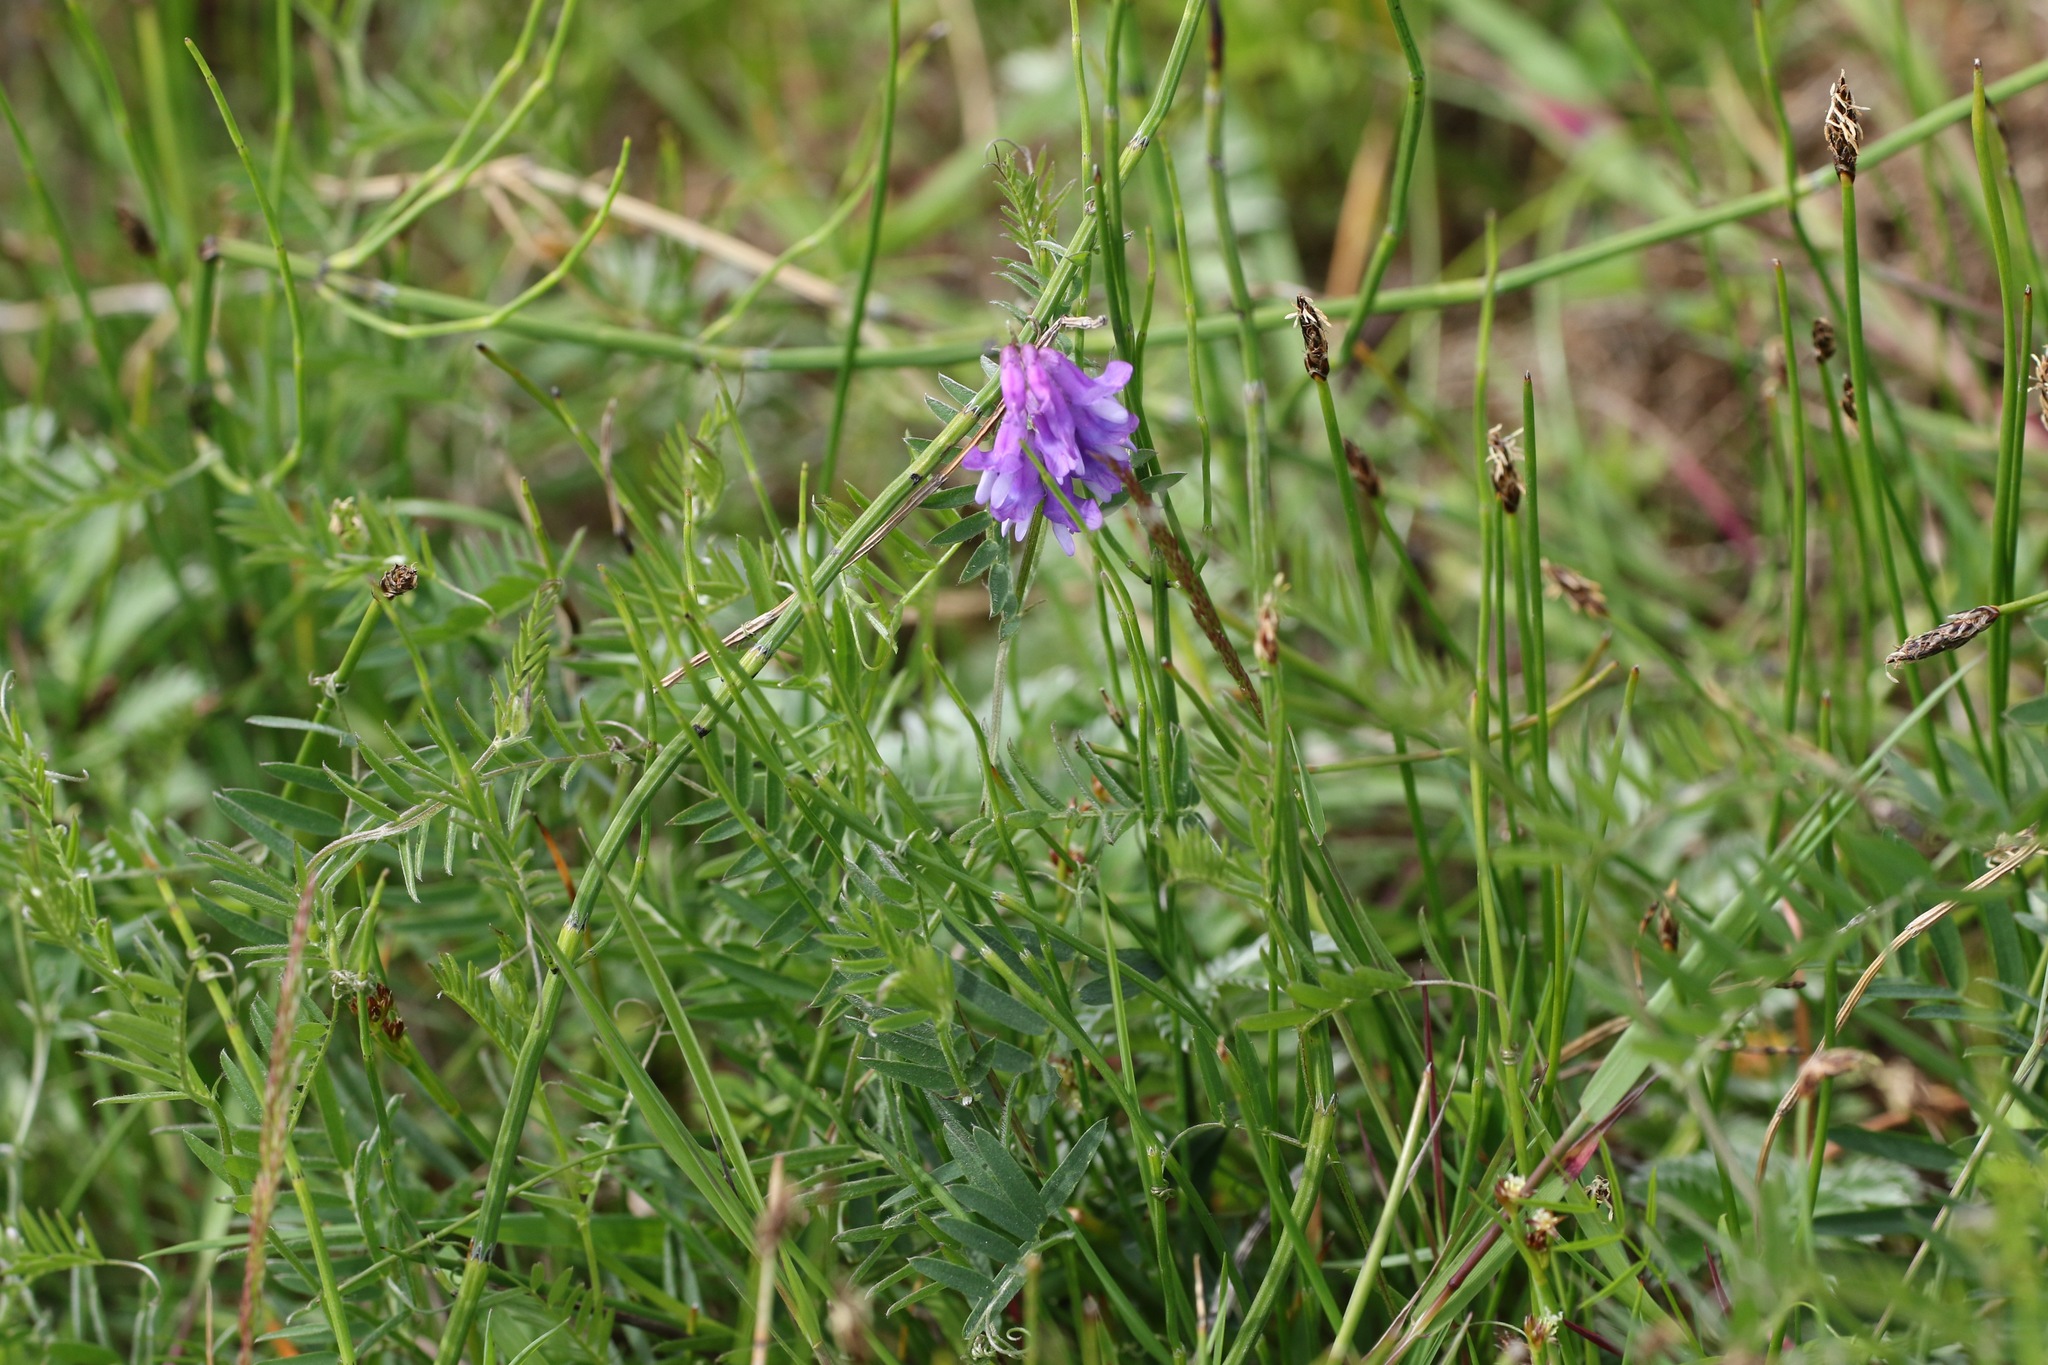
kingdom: Plantae
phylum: Tracheophyta
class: Magnoliopsida
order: Fabales
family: Fabaceae
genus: Vicia
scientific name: Vicia cracca
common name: Bird vetch
